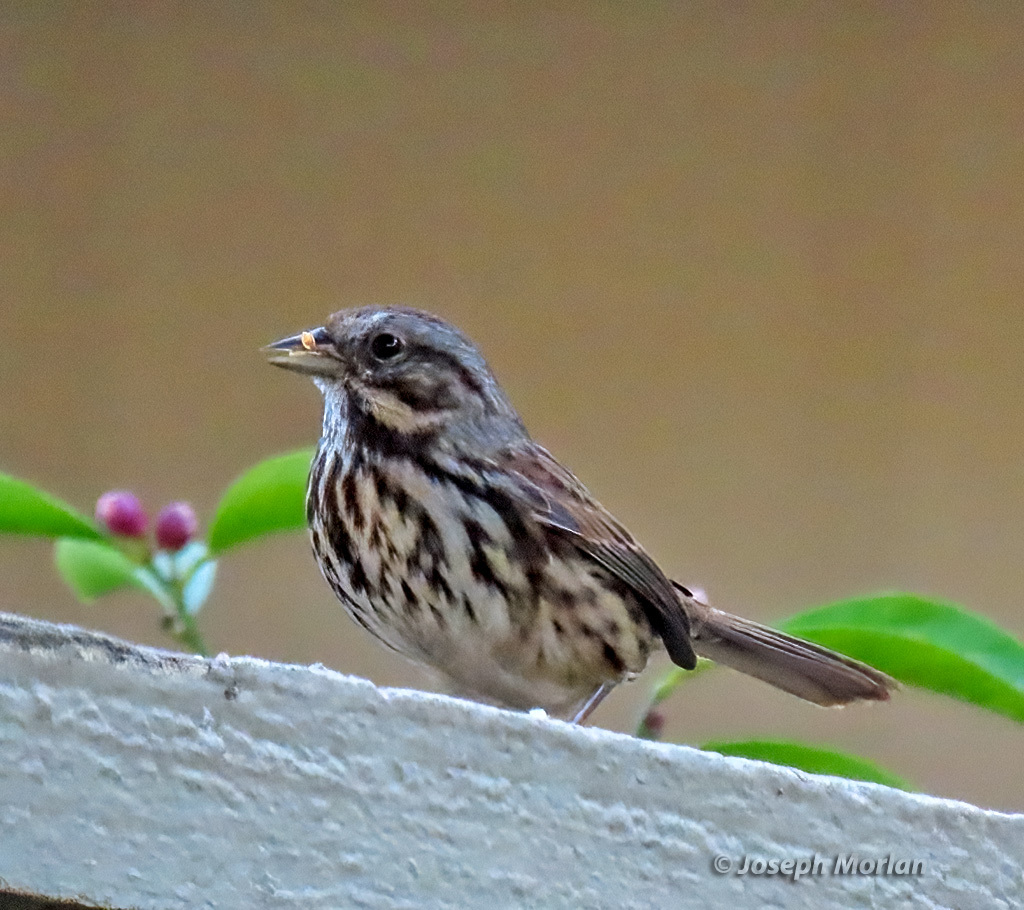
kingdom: Animalia
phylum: Chordata
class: Aves
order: Passeriformes
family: Passerellidae
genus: Melospiza
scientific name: Melospiza melodia
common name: Song sparrow
